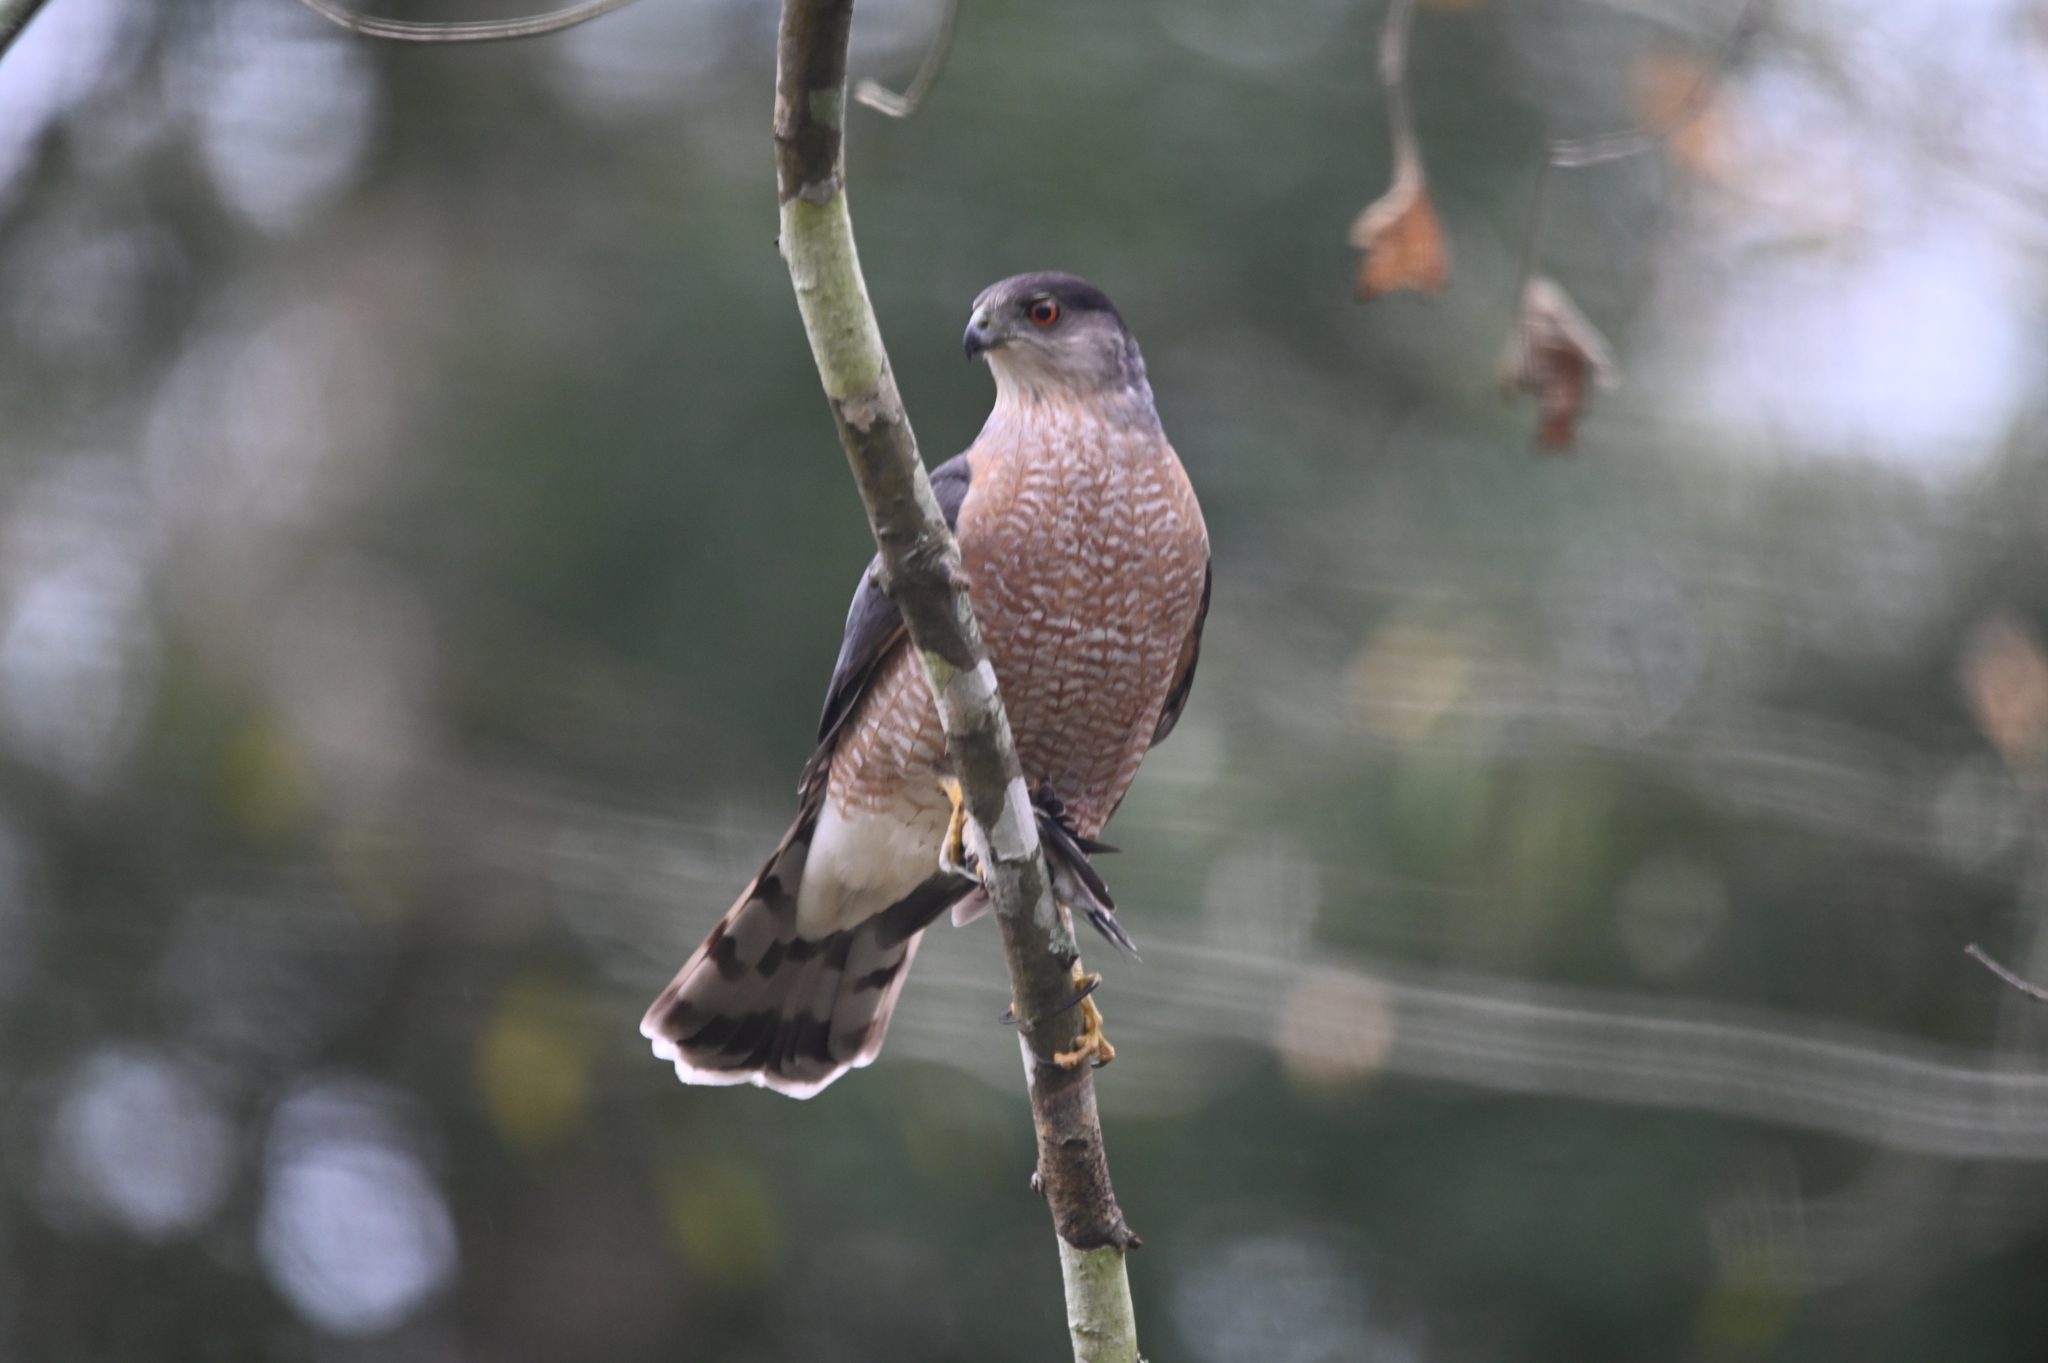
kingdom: Animalia
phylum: Chordata
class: Aves
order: Accipitriformes
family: Accipitridae
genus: Accipiter
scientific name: Accipiter cooperii
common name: Cooper's hawk
